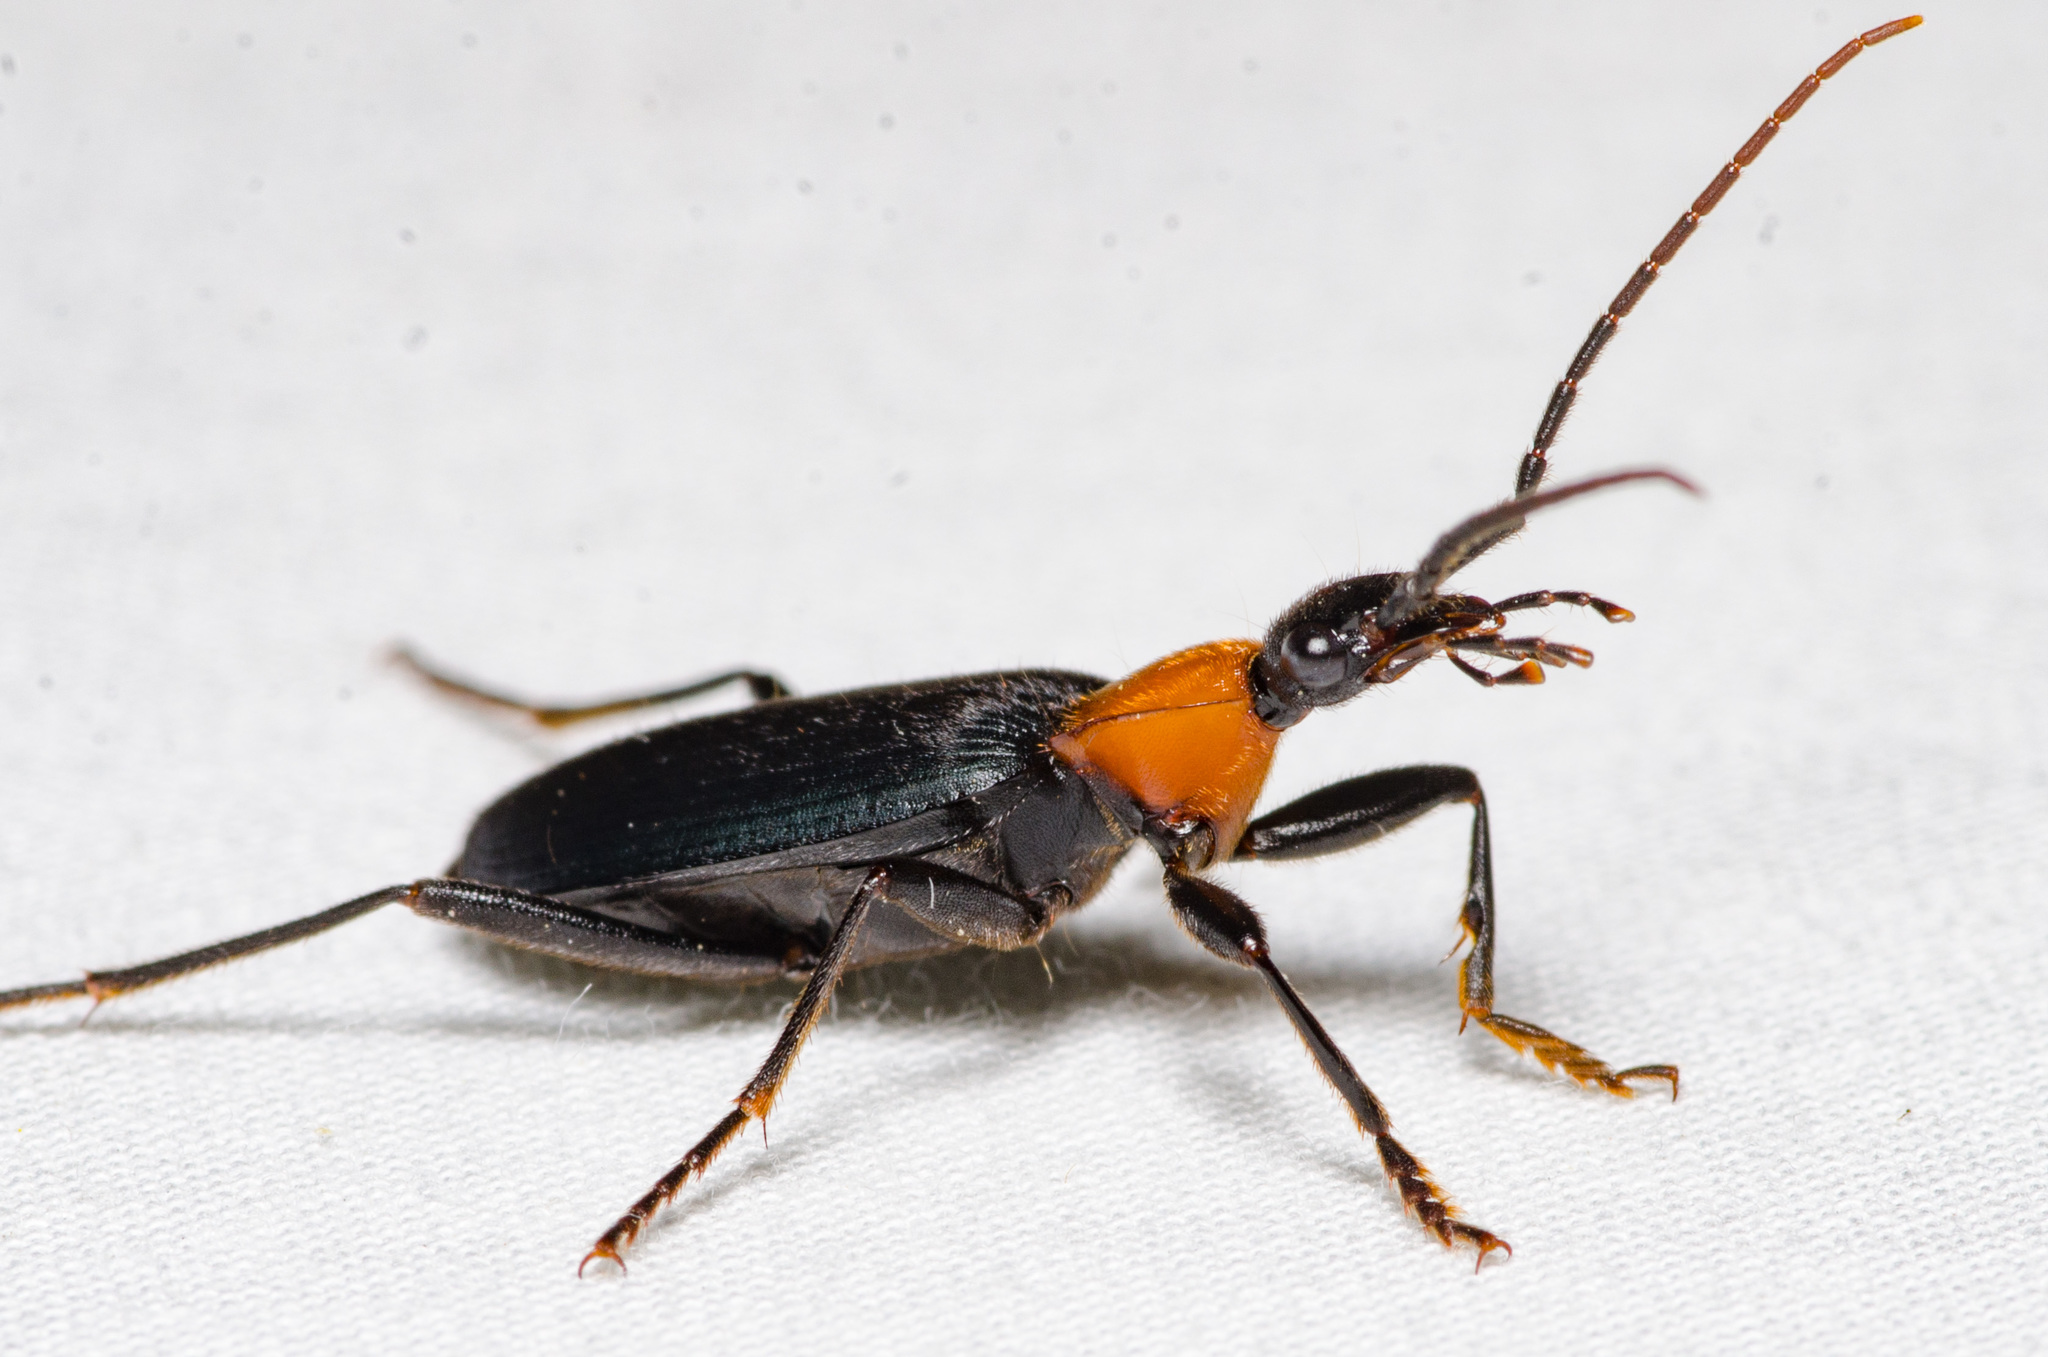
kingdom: Animalia
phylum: Arthropoda
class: Insecta
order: Coleoptera
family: Carabidae
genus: Galerita
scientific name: Galerita mexicana
